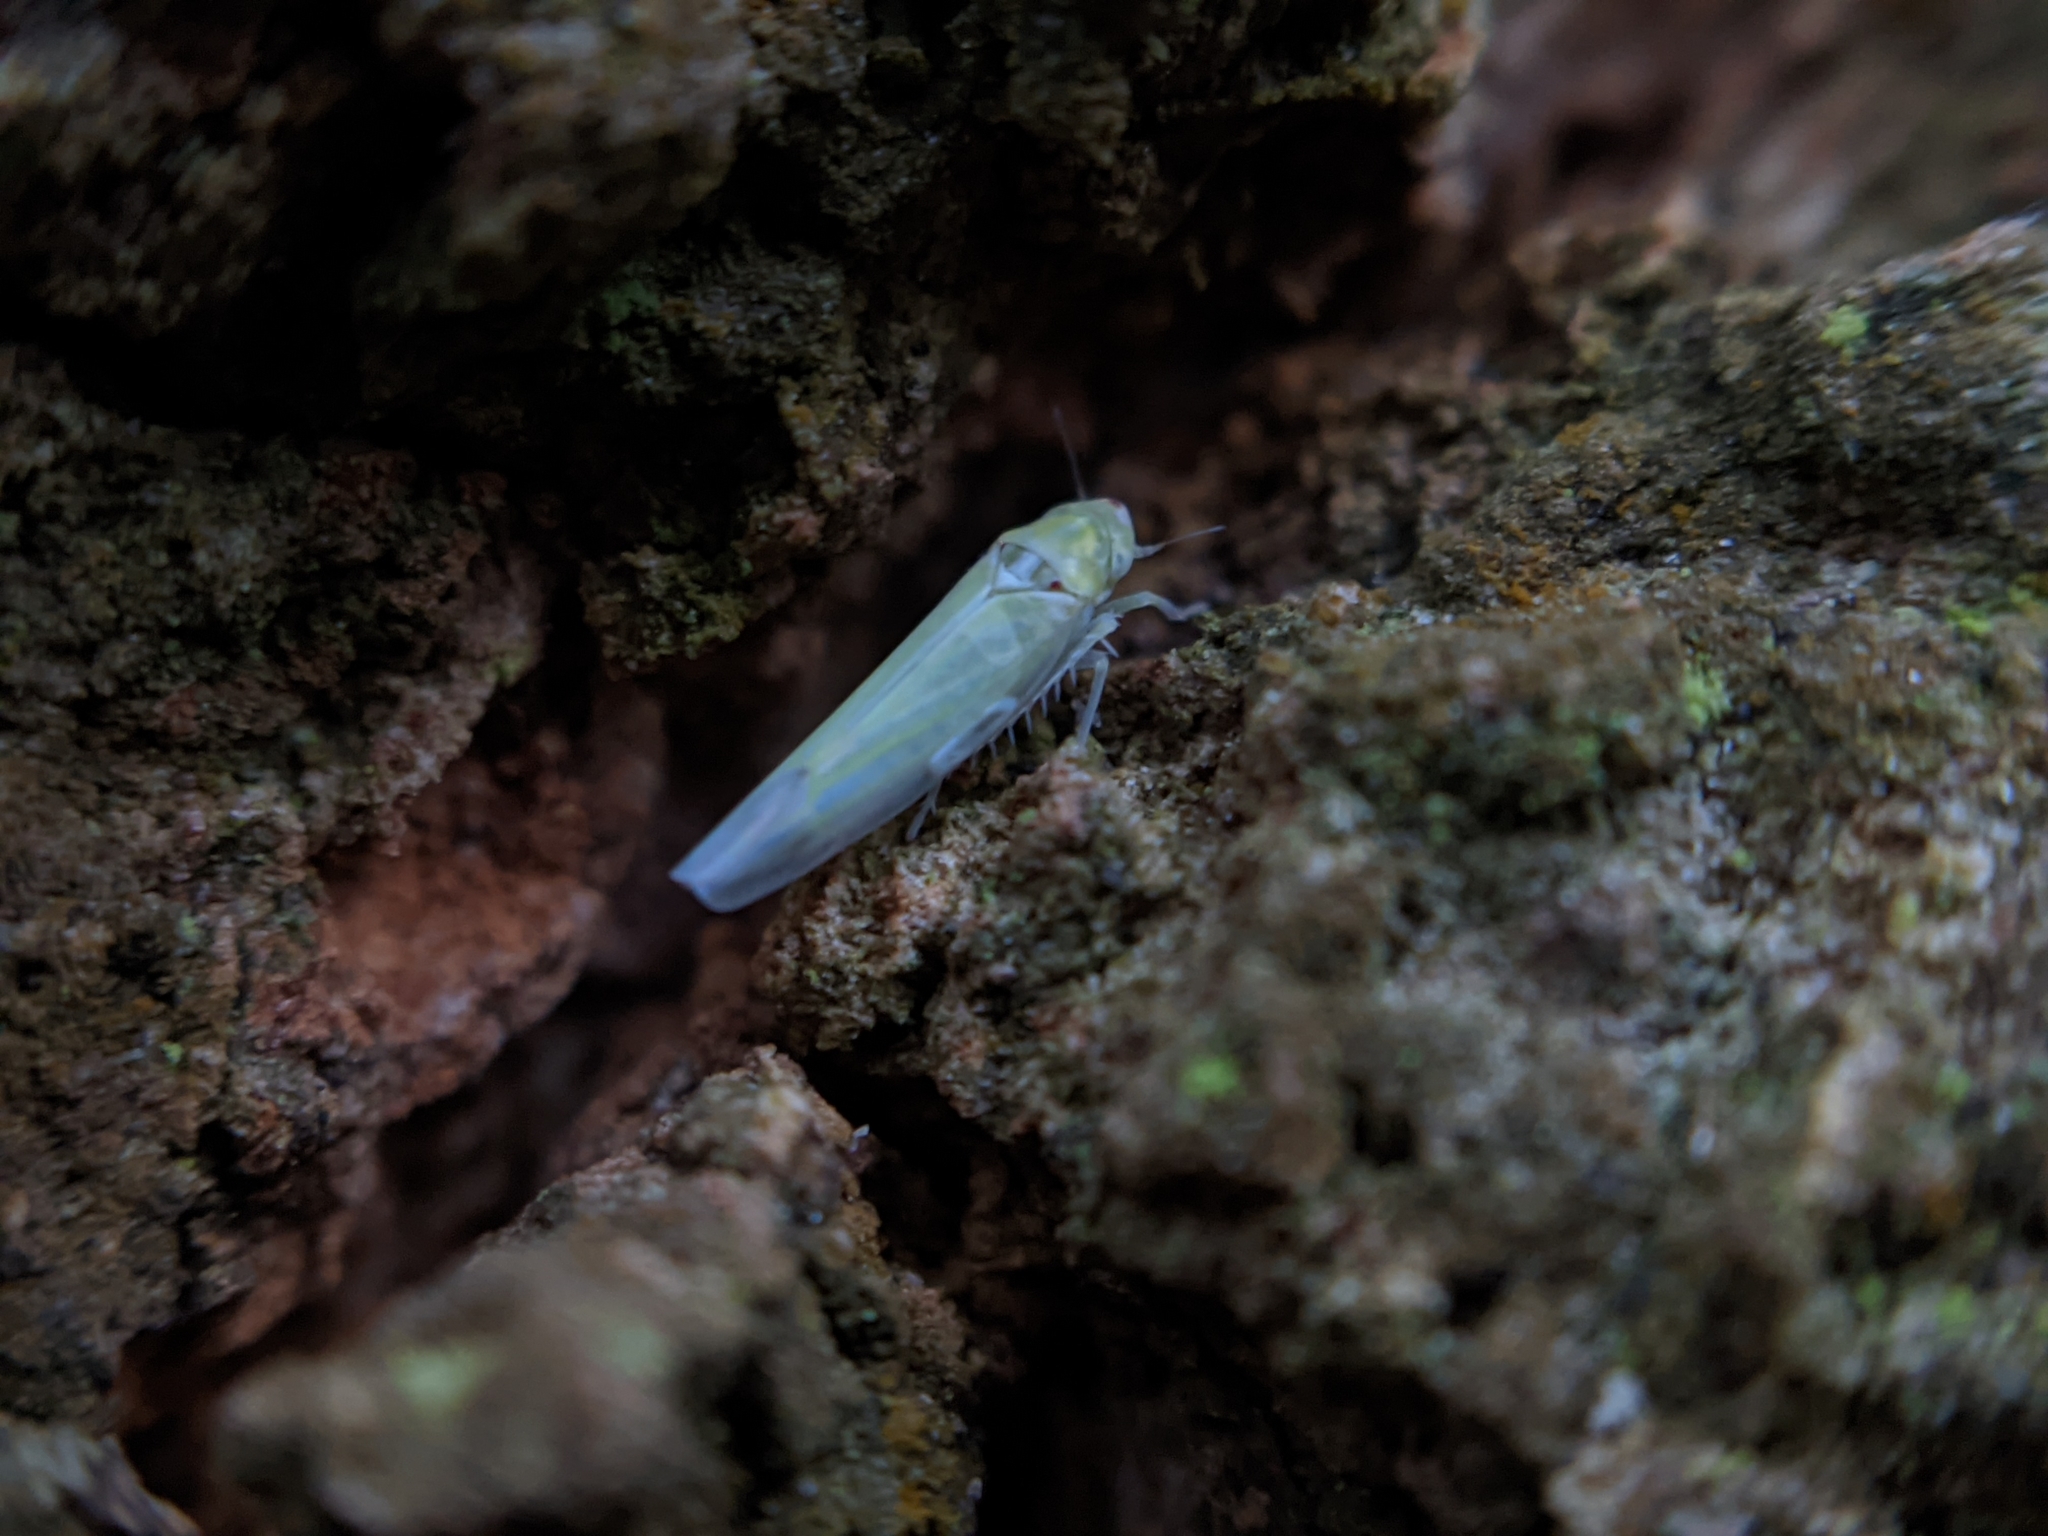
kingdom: Animalia
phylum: Arthropoda
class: Insecta
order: Hemiptera
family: Cicadellidae
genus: Zygina
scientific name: Zygina nivea
